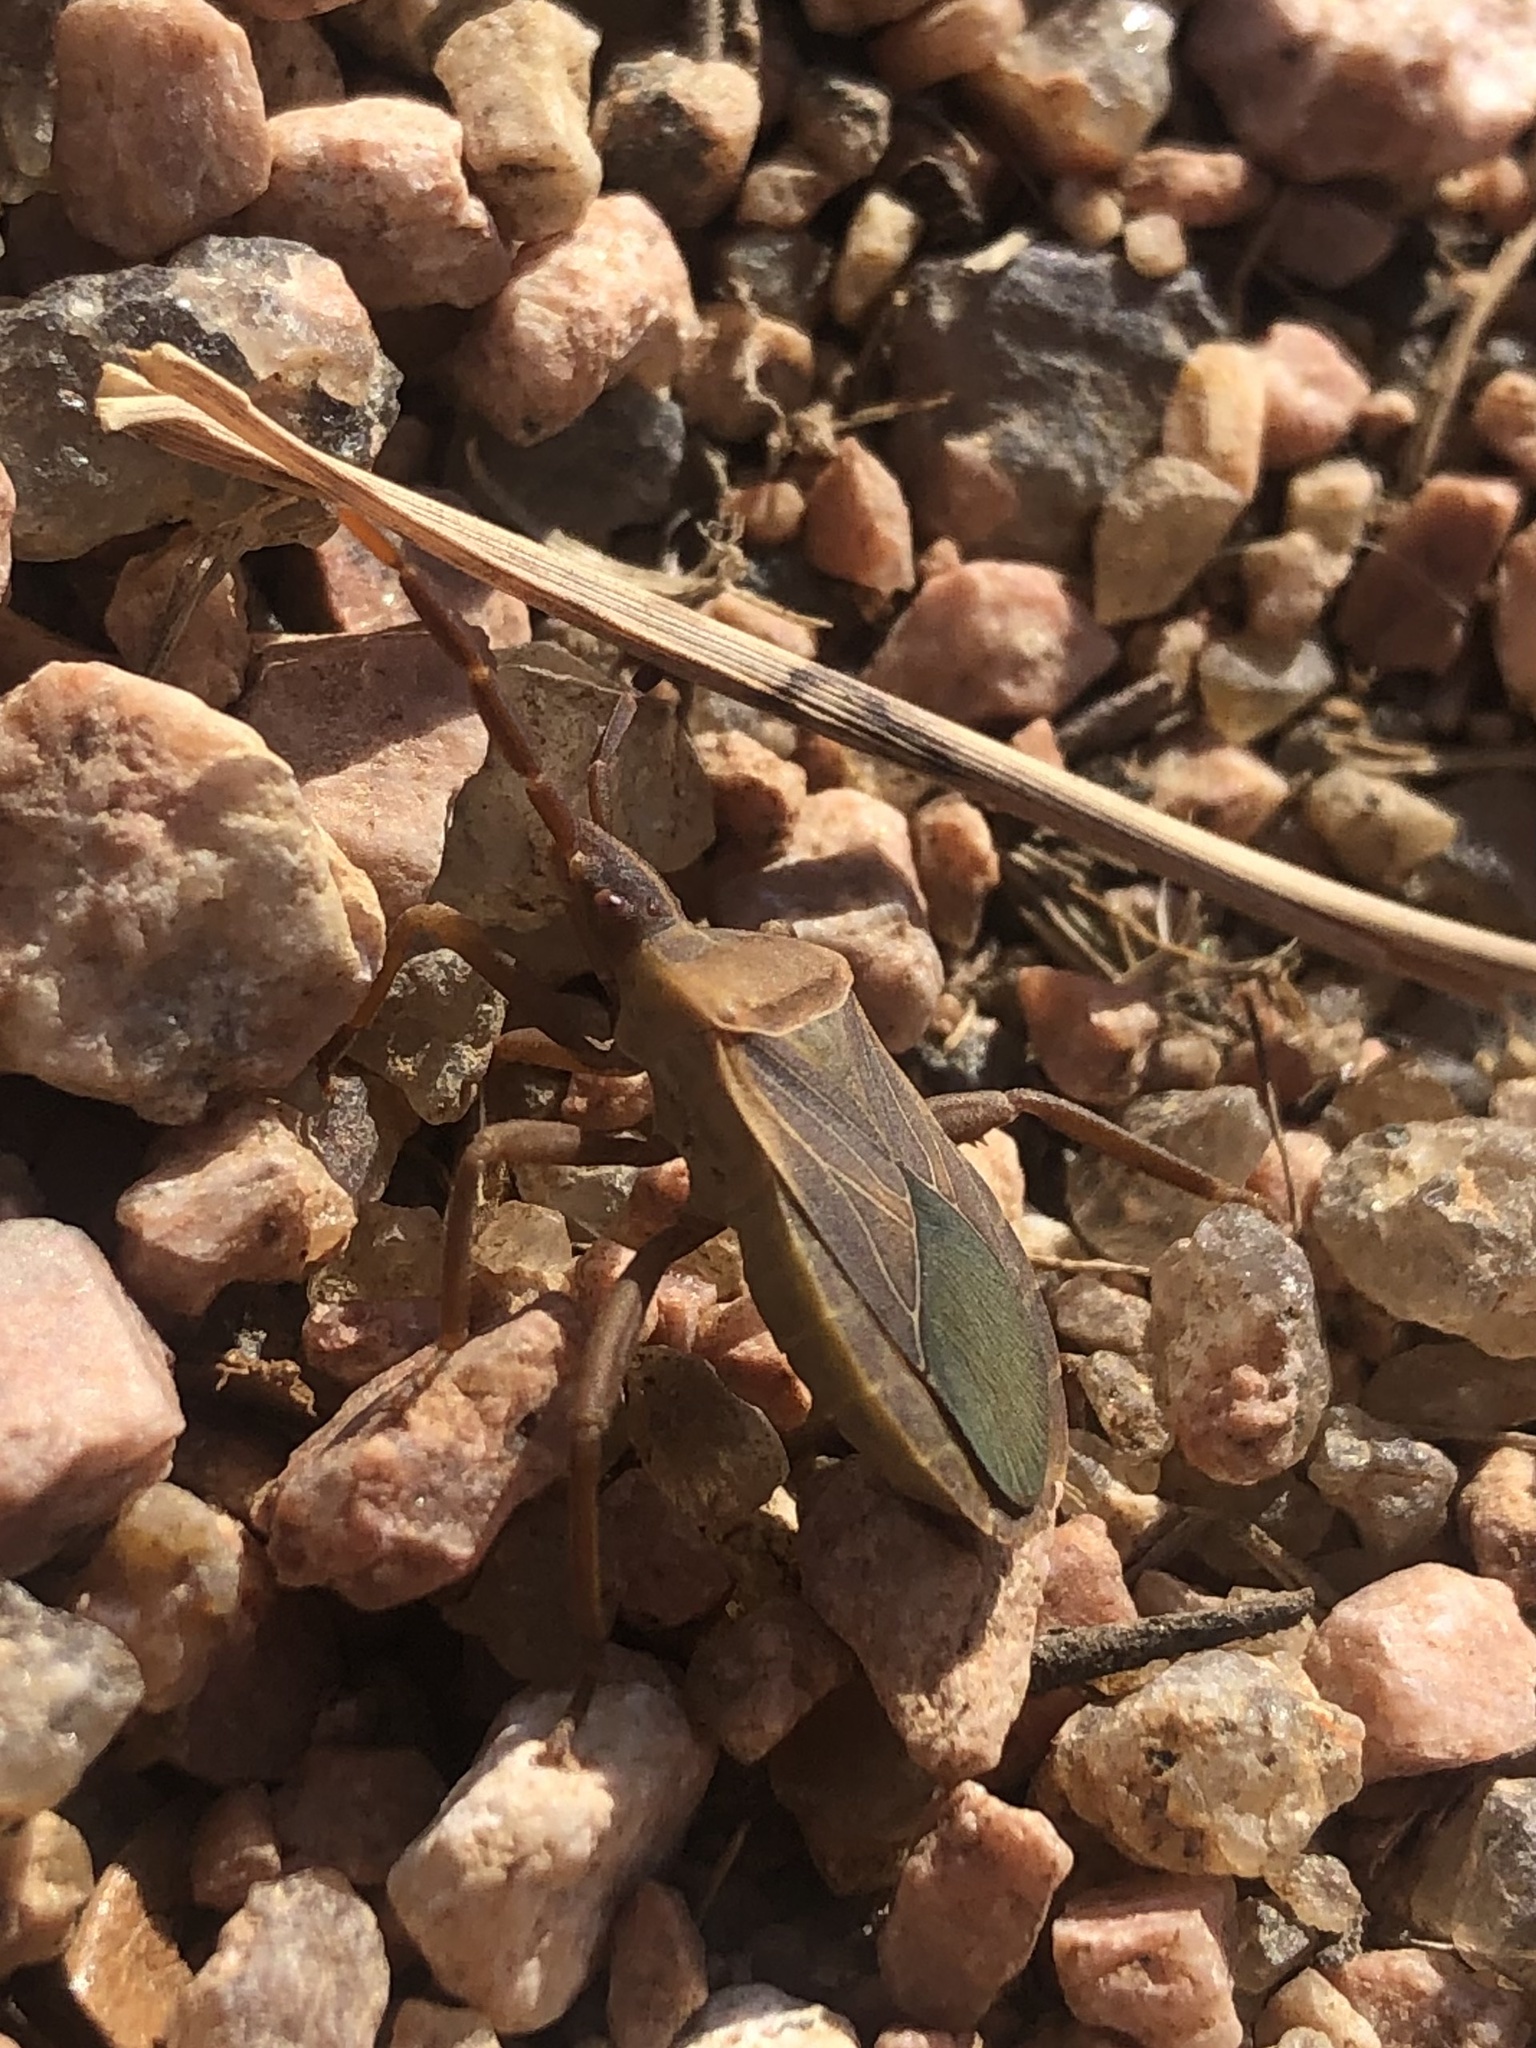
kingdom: Animalia
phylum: Arthropoda
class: Insecta
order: Hemiptera
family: Coreidae
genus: Chelinidea
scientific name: Chelinidea vittiger
